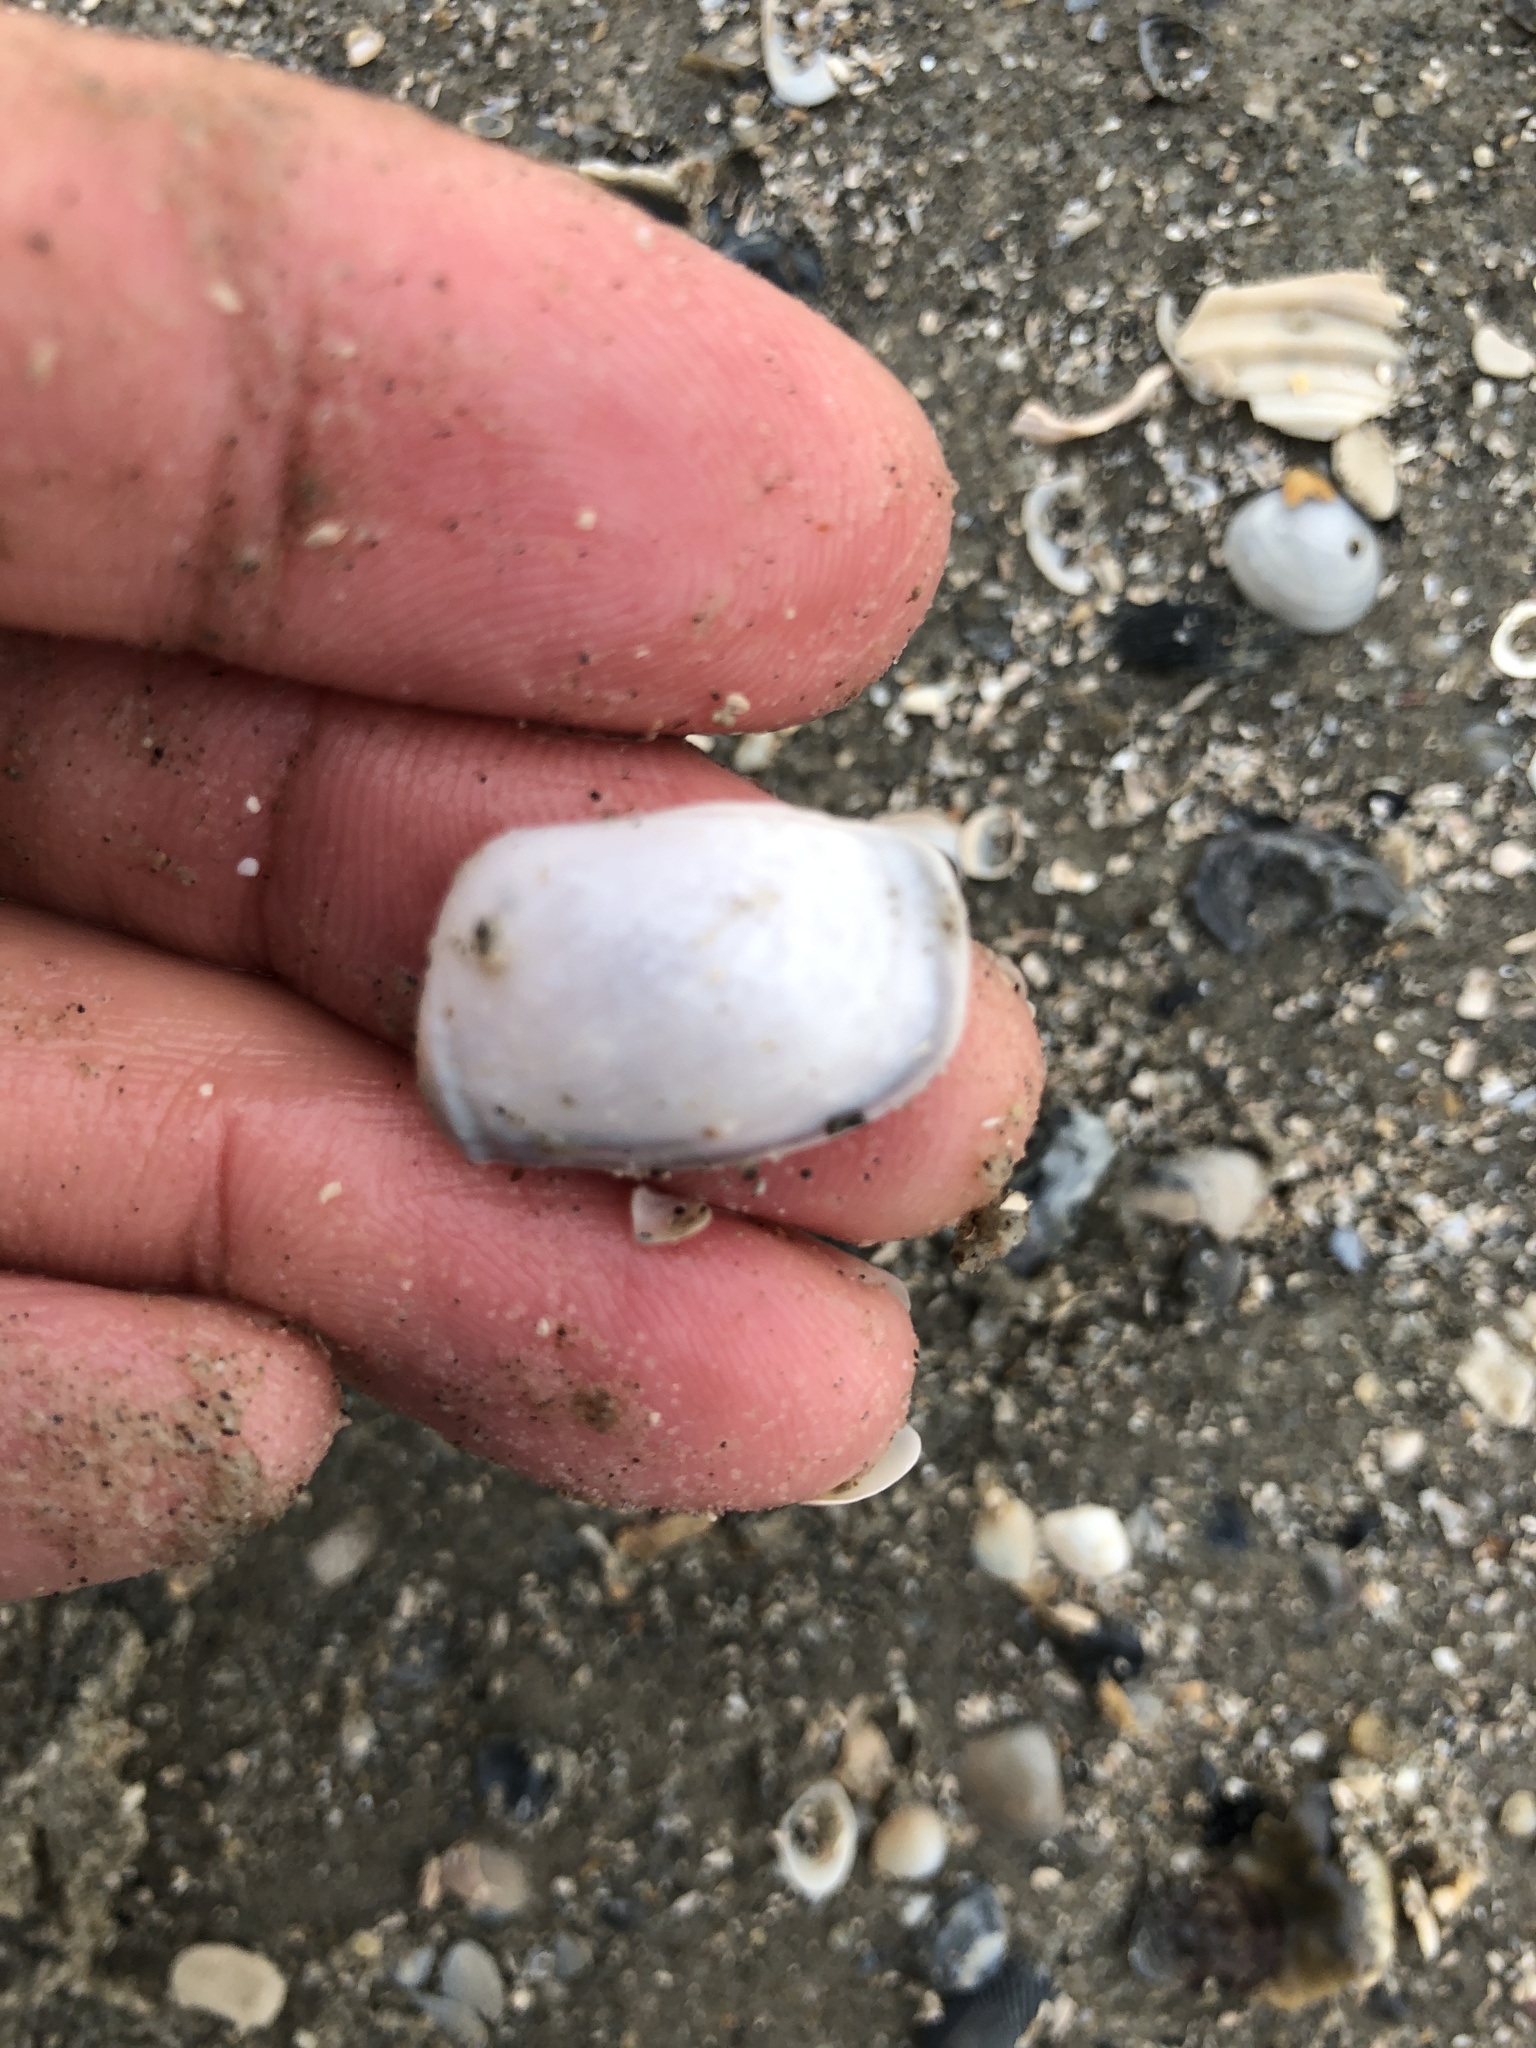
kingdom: Animalia
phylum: Mollusca
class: Bivalvia
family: Periplomatidae
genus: Periploma
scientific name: Periploma inequale
